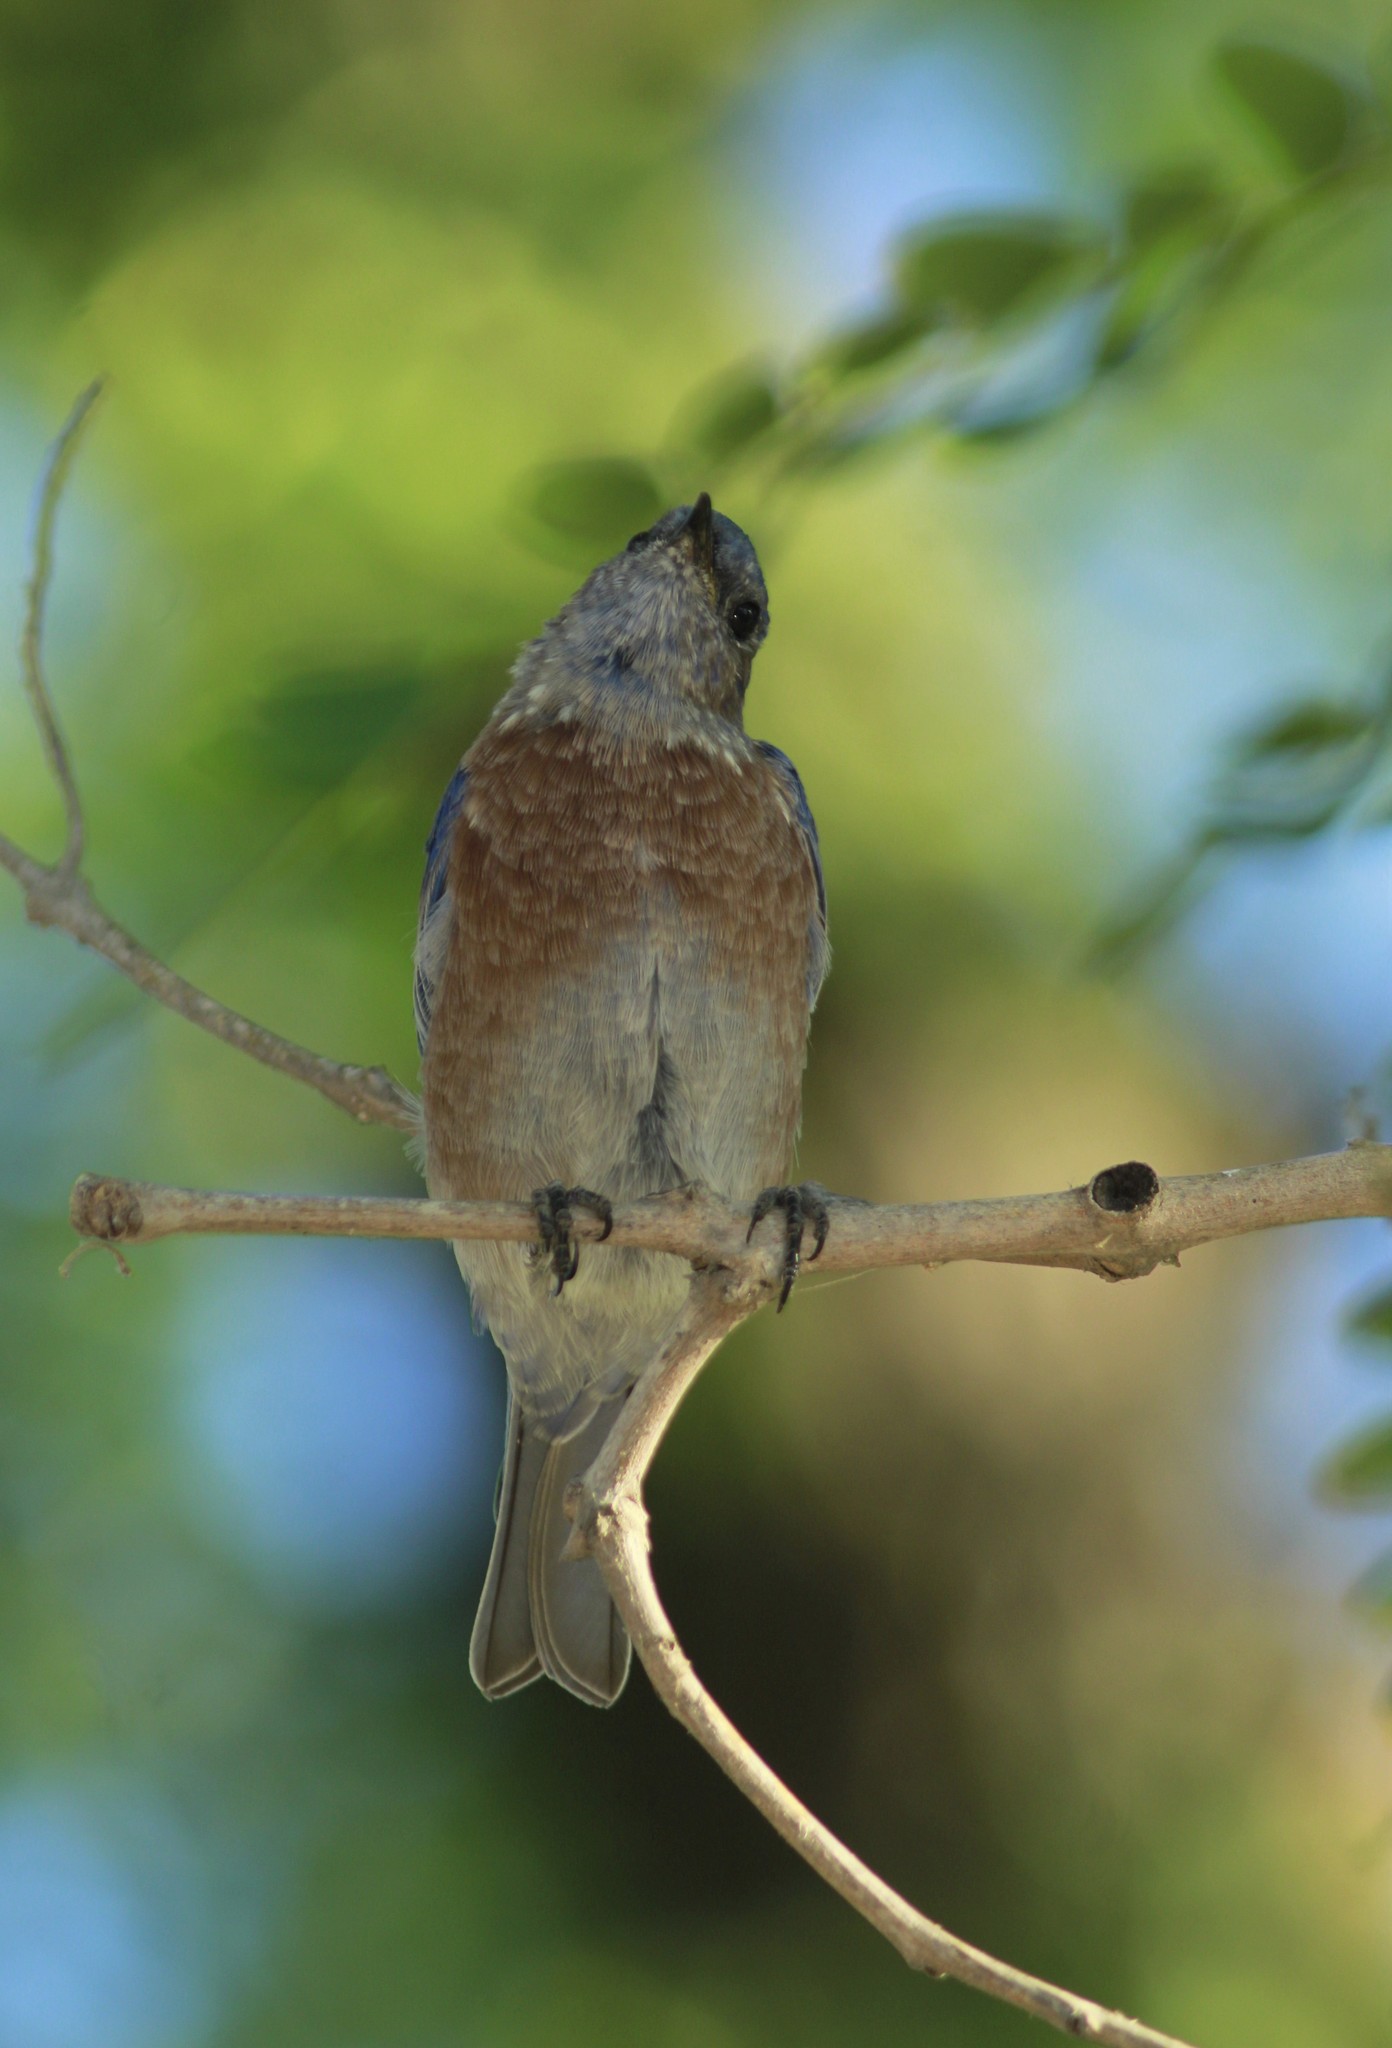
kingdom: Animalia
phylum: Chordata
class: Aves
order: Passeriformes
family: Turdidae
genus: Sialia
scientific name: Sialia mexicana
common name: Western bluebird
